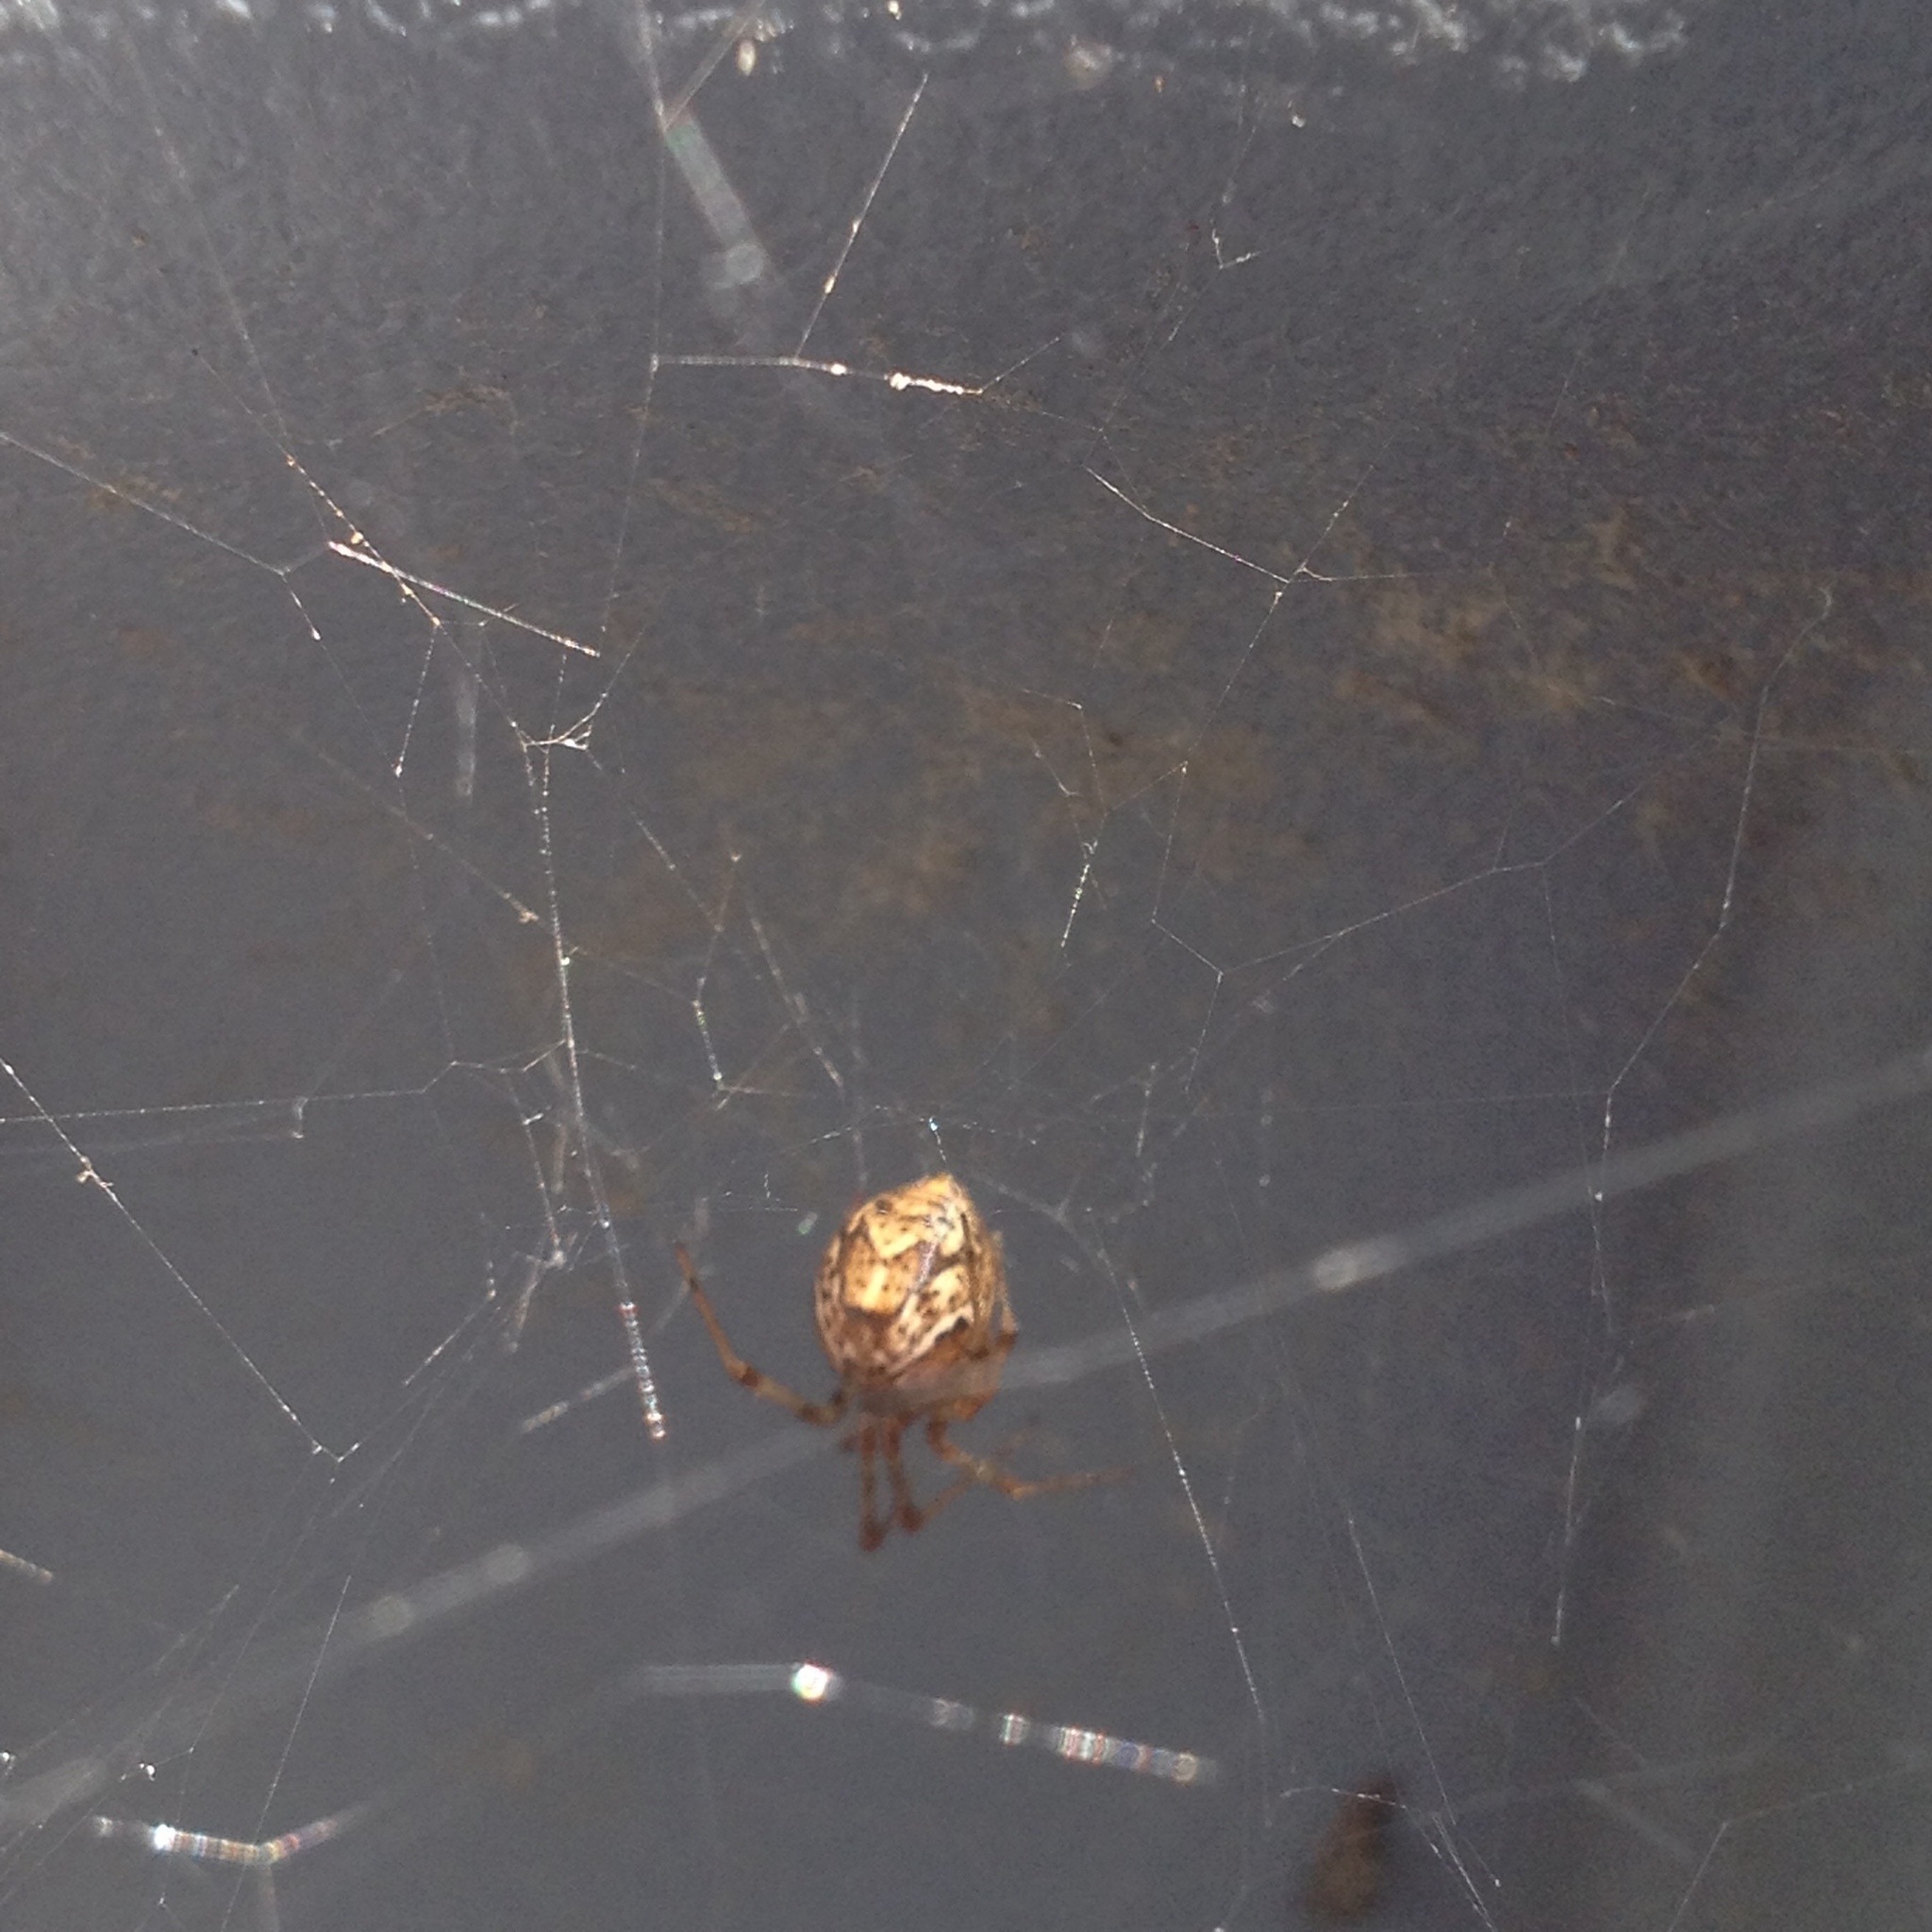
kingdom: Animalia
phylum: Arthropoda
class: Arachnida
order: Araneae
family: Theridiidae
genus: Parasteatoda
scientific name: Parasteatoda tepidariorum
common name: Common house spider
